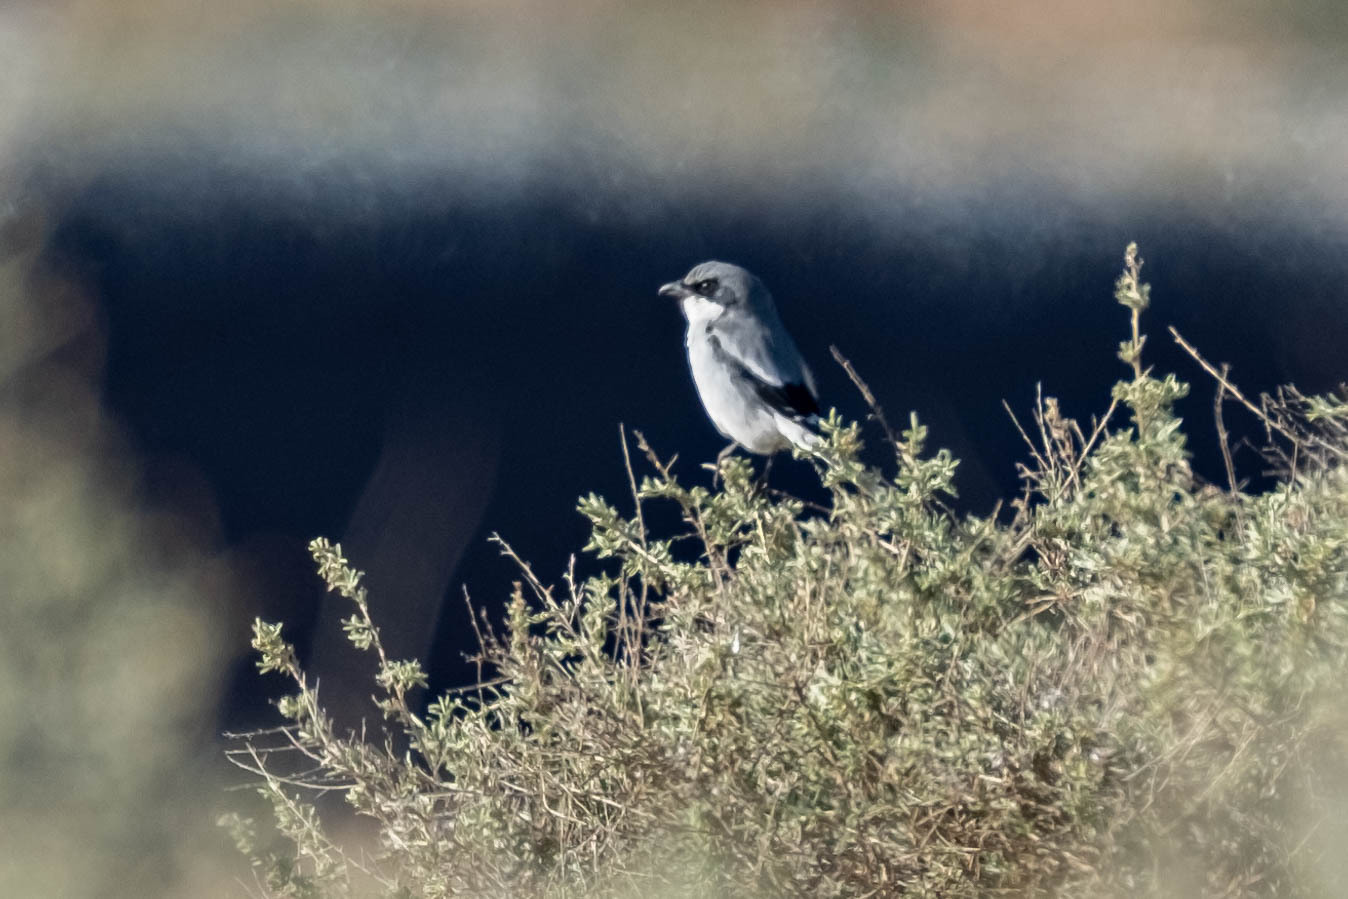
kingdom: Animalia
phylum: Chordata
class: Aves
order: Passeriformes
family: Laniidae
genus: Lanius
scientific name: Lanius ludovicianus
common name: Loggerhead shrike
